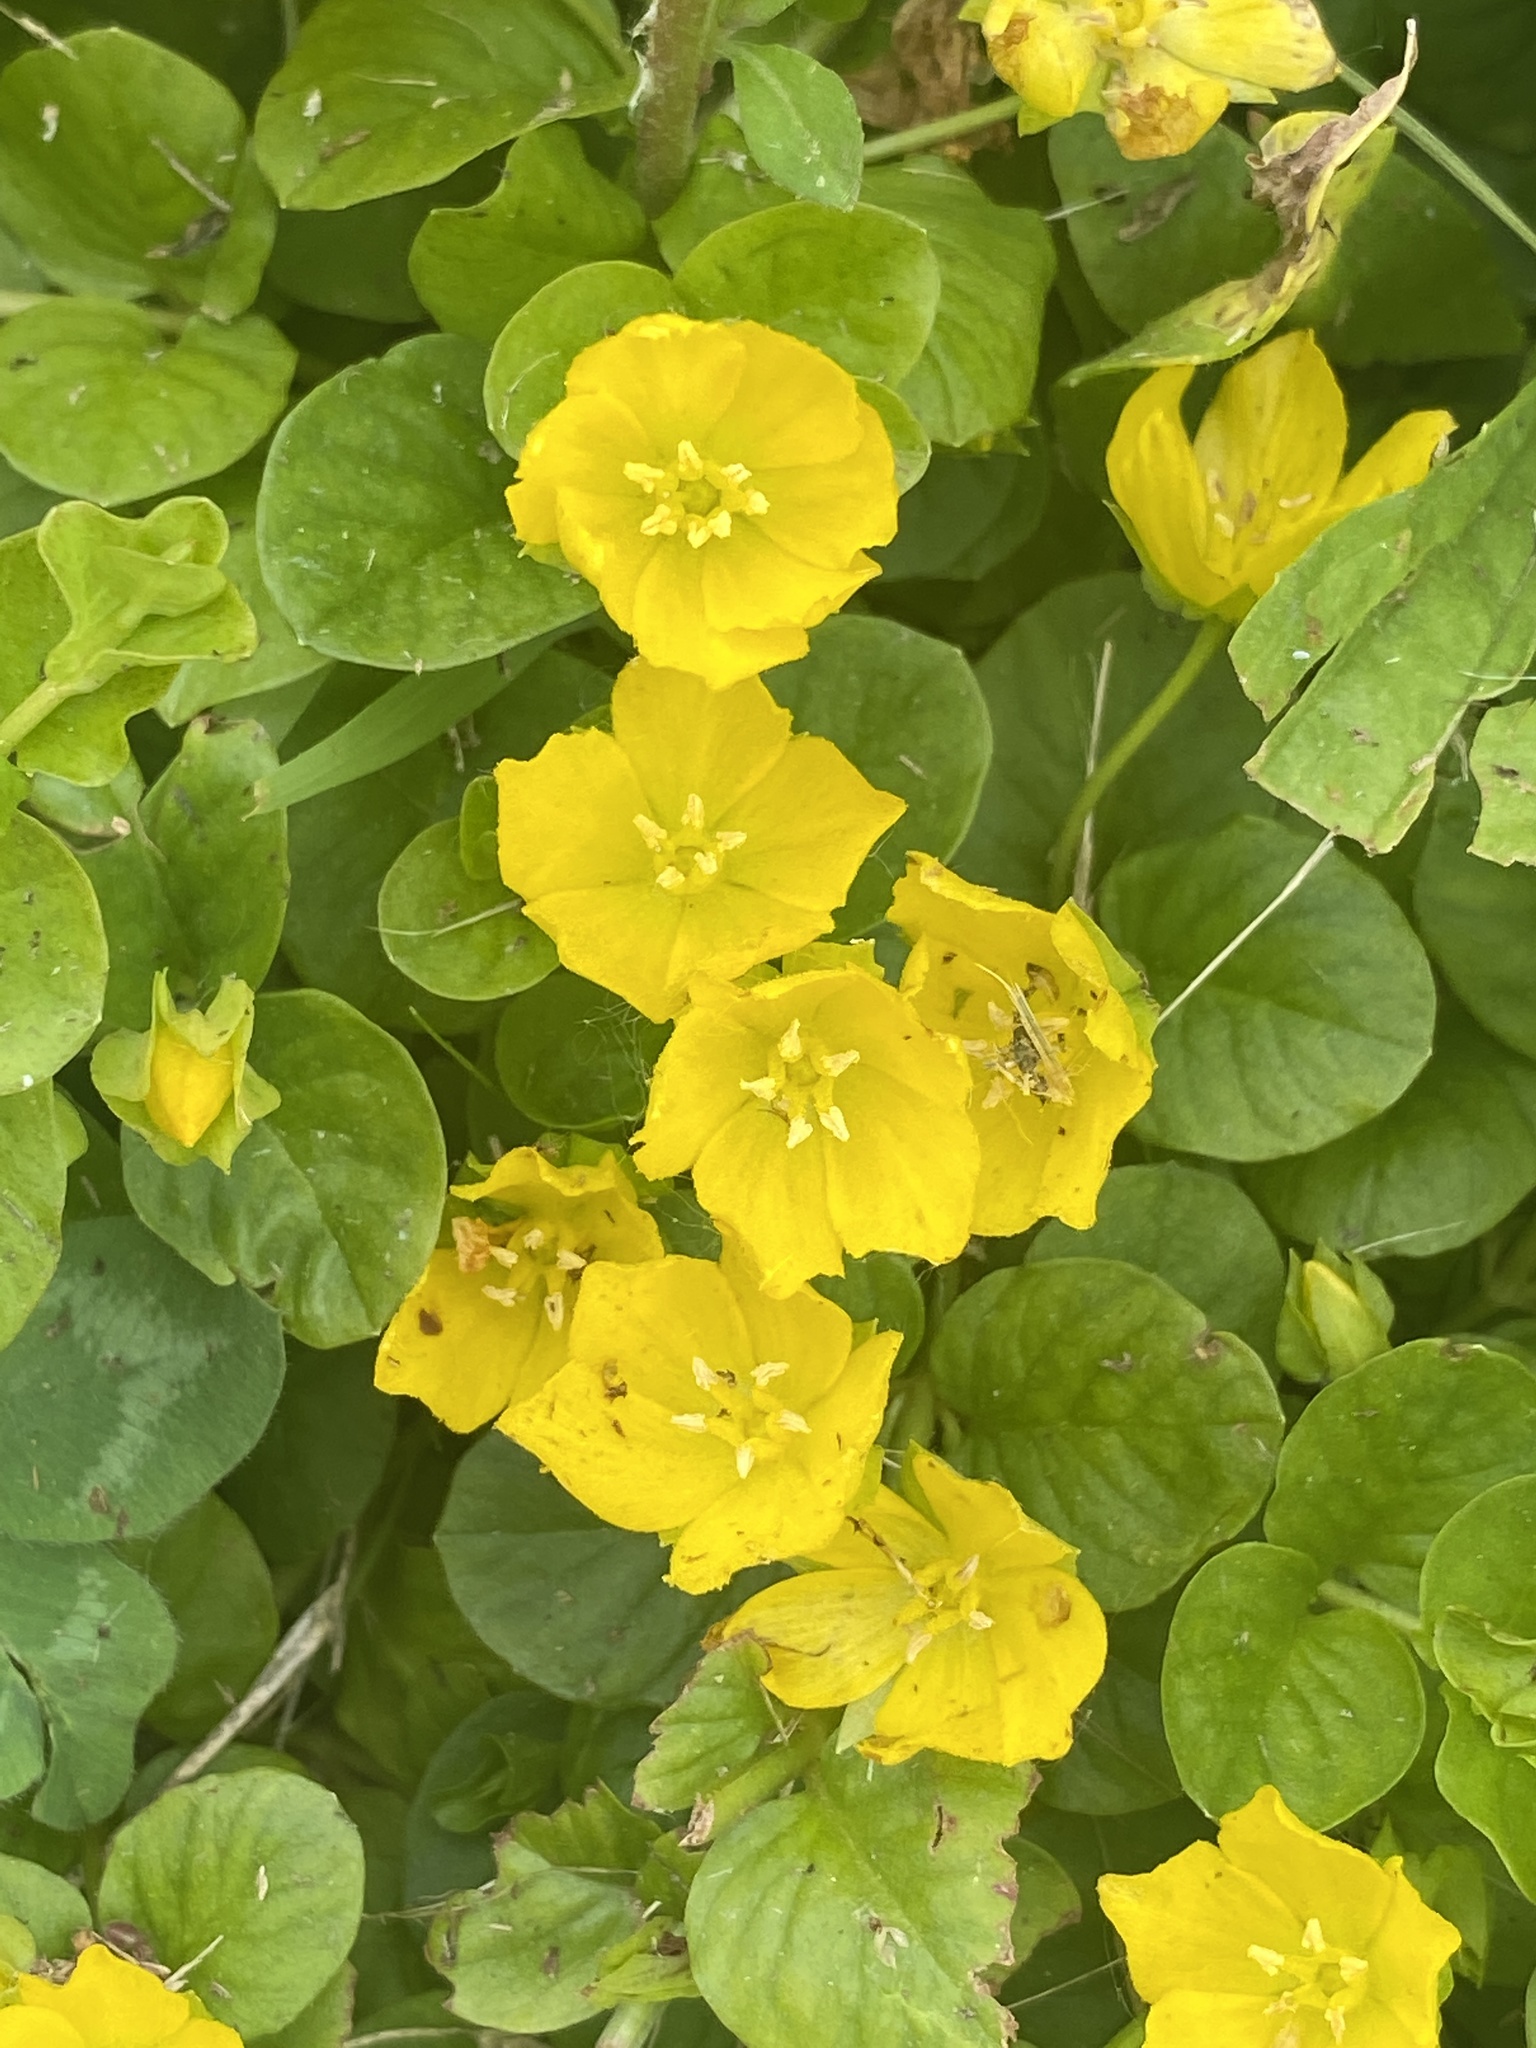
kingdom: Plantae
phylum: Tracheophyta
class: Magnoliopsida
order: Ericales
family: Primulaceae
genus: Lysimachia
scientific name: Lysimachia nummularia
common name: Moneywort
